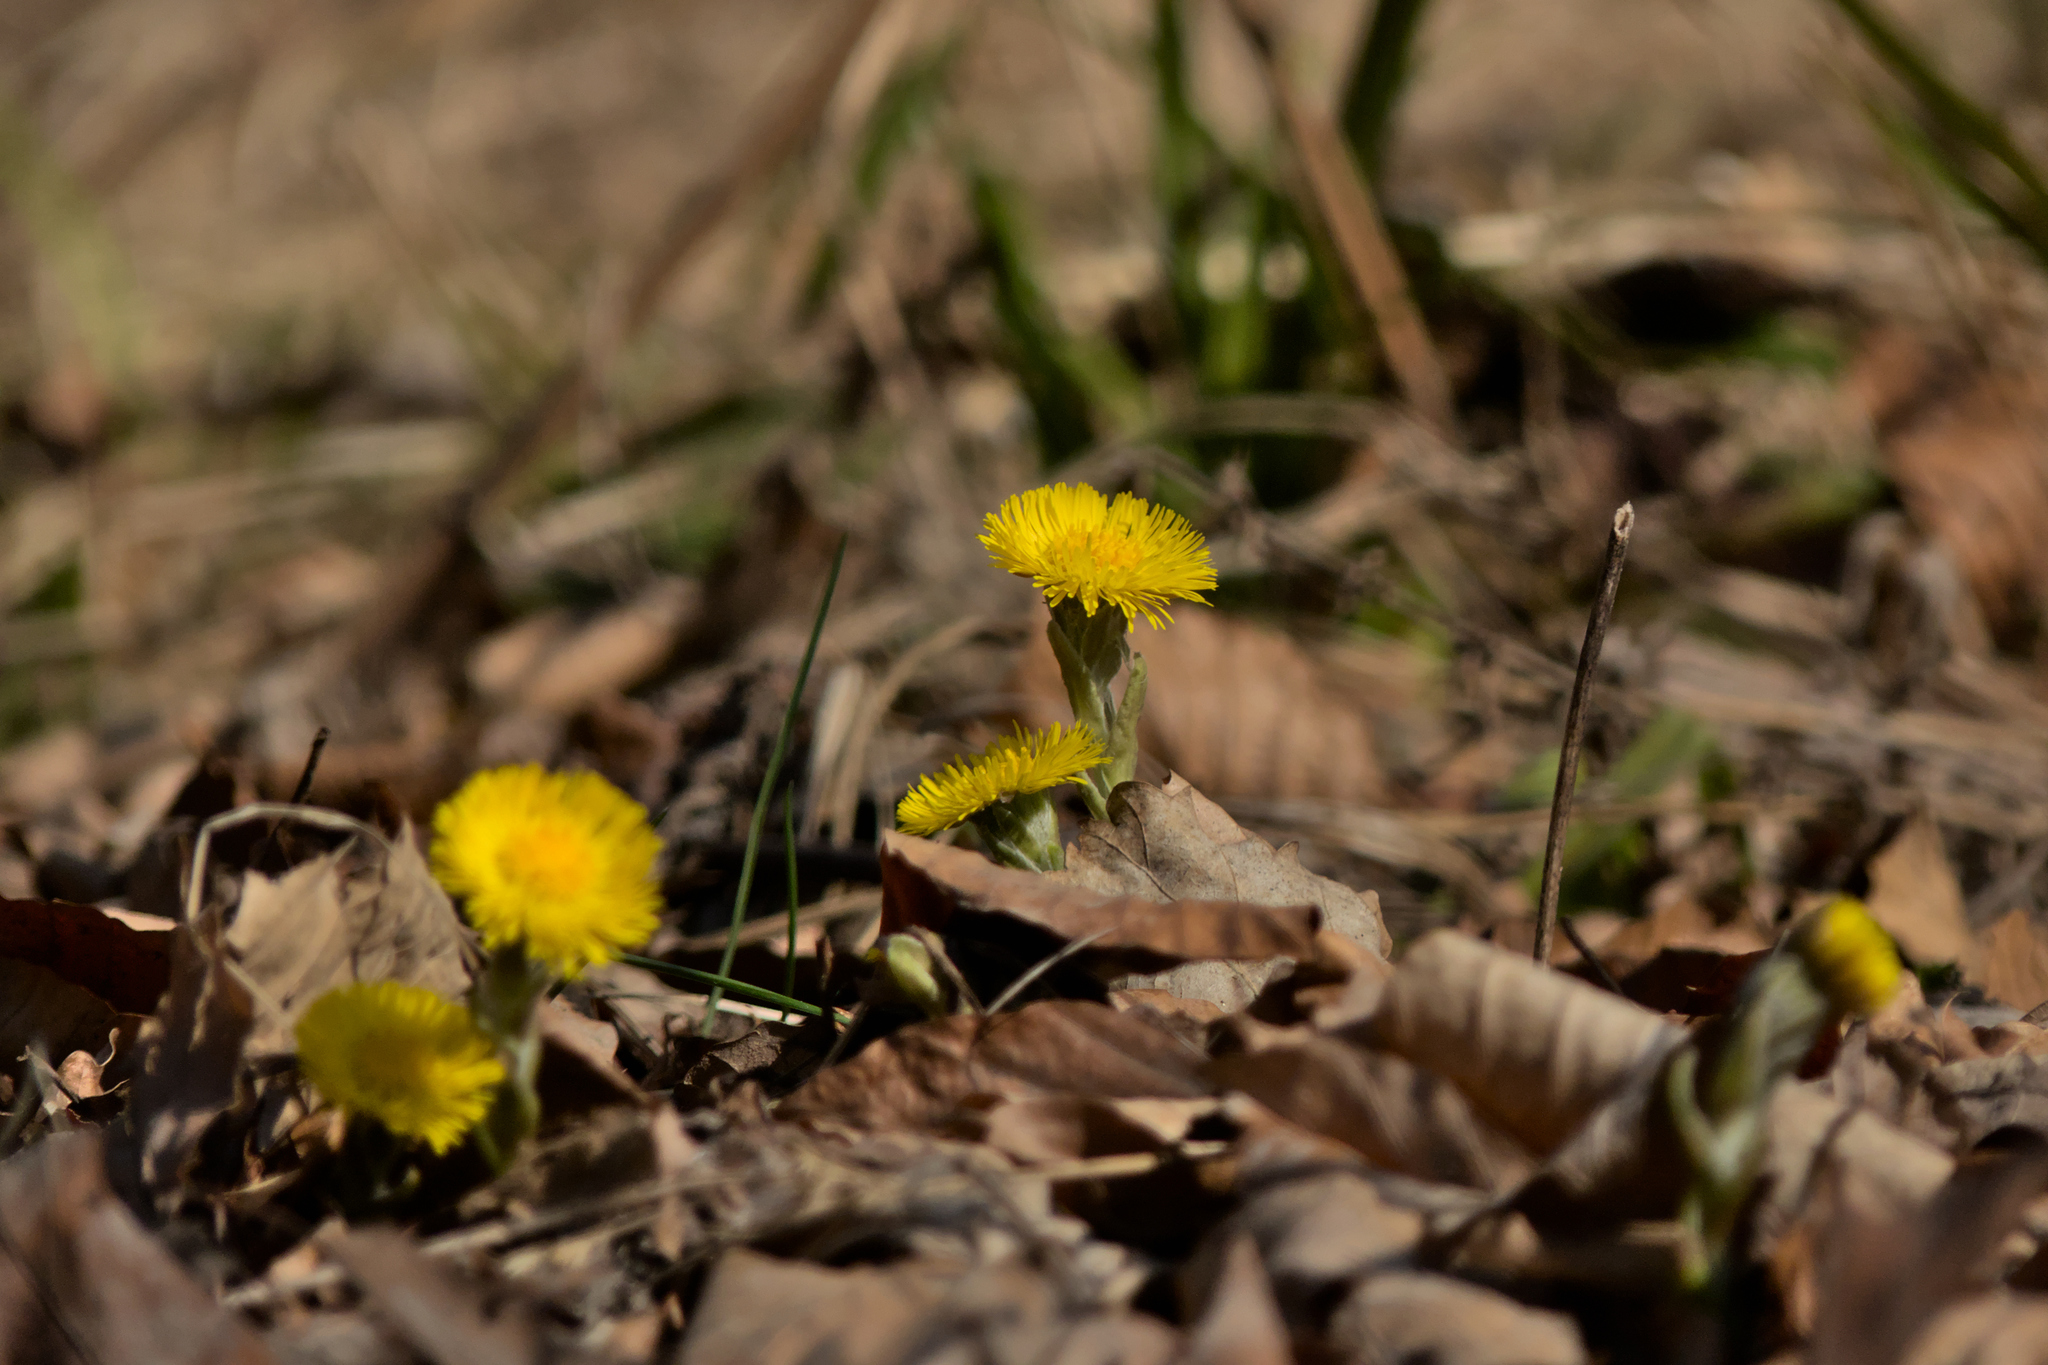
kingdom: Plantae
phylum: Tracheophyta
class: Magnoliopsida
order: Asterales
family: Asteraceae
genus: Tussilago
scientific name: Tussilago farfara
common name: Coltsfoot
